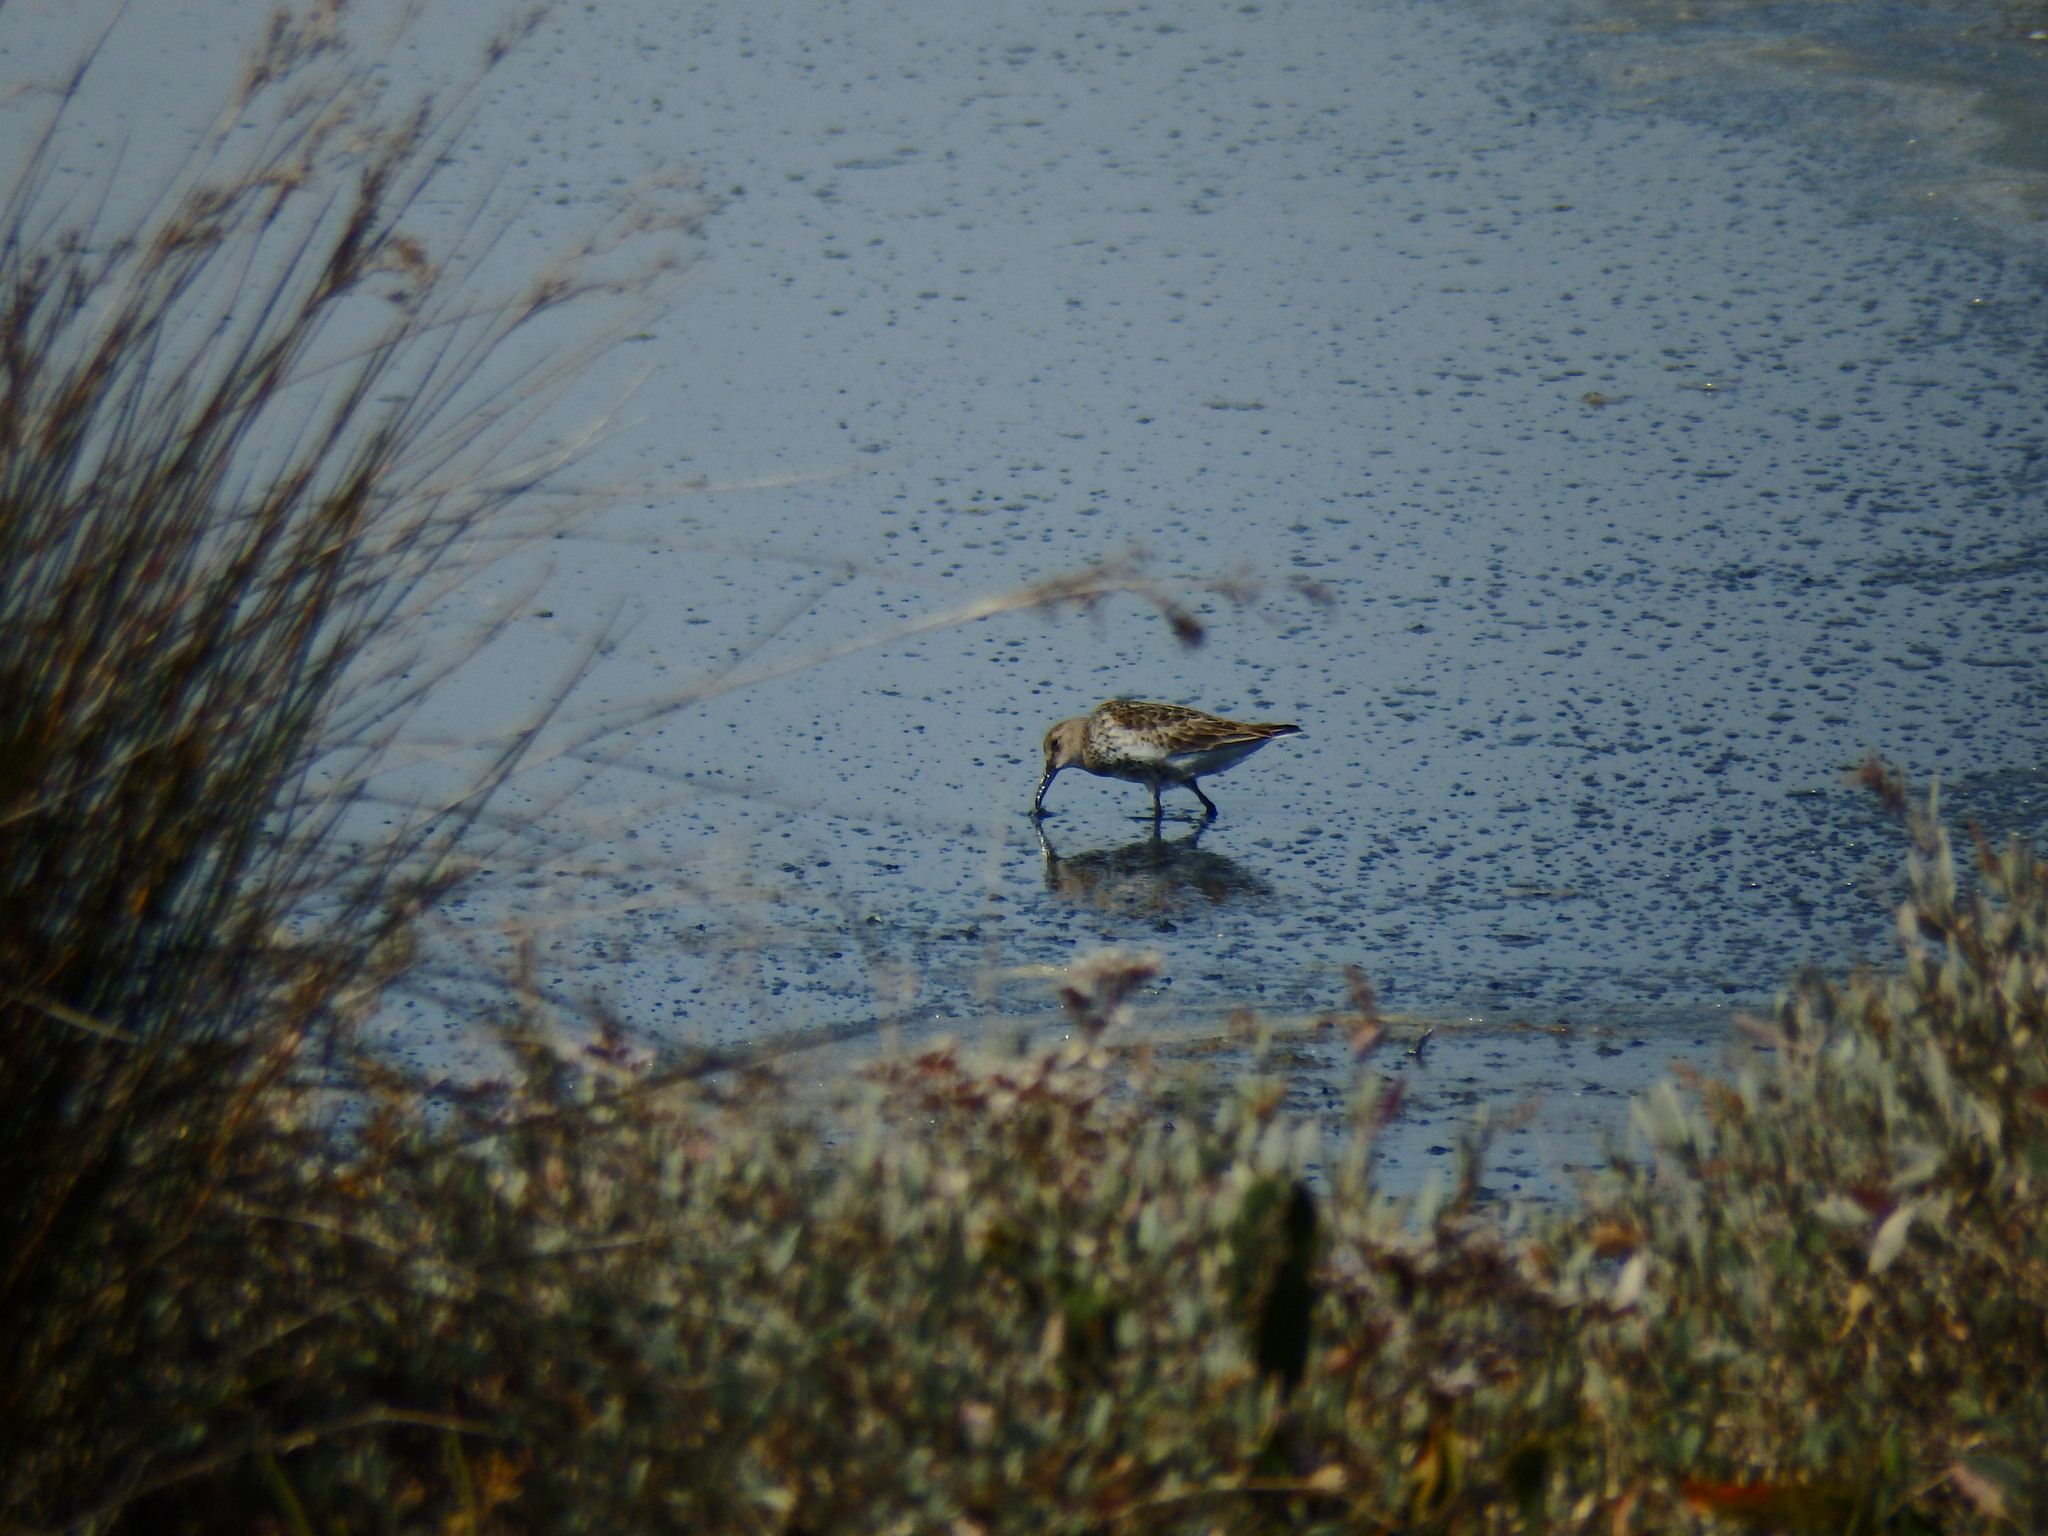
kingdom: Animalia
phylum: Chordata
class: Aves
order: Charadriiformes
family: Scolopacidae
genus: Calidris
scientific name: Calidris alpina
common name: Dunlin
